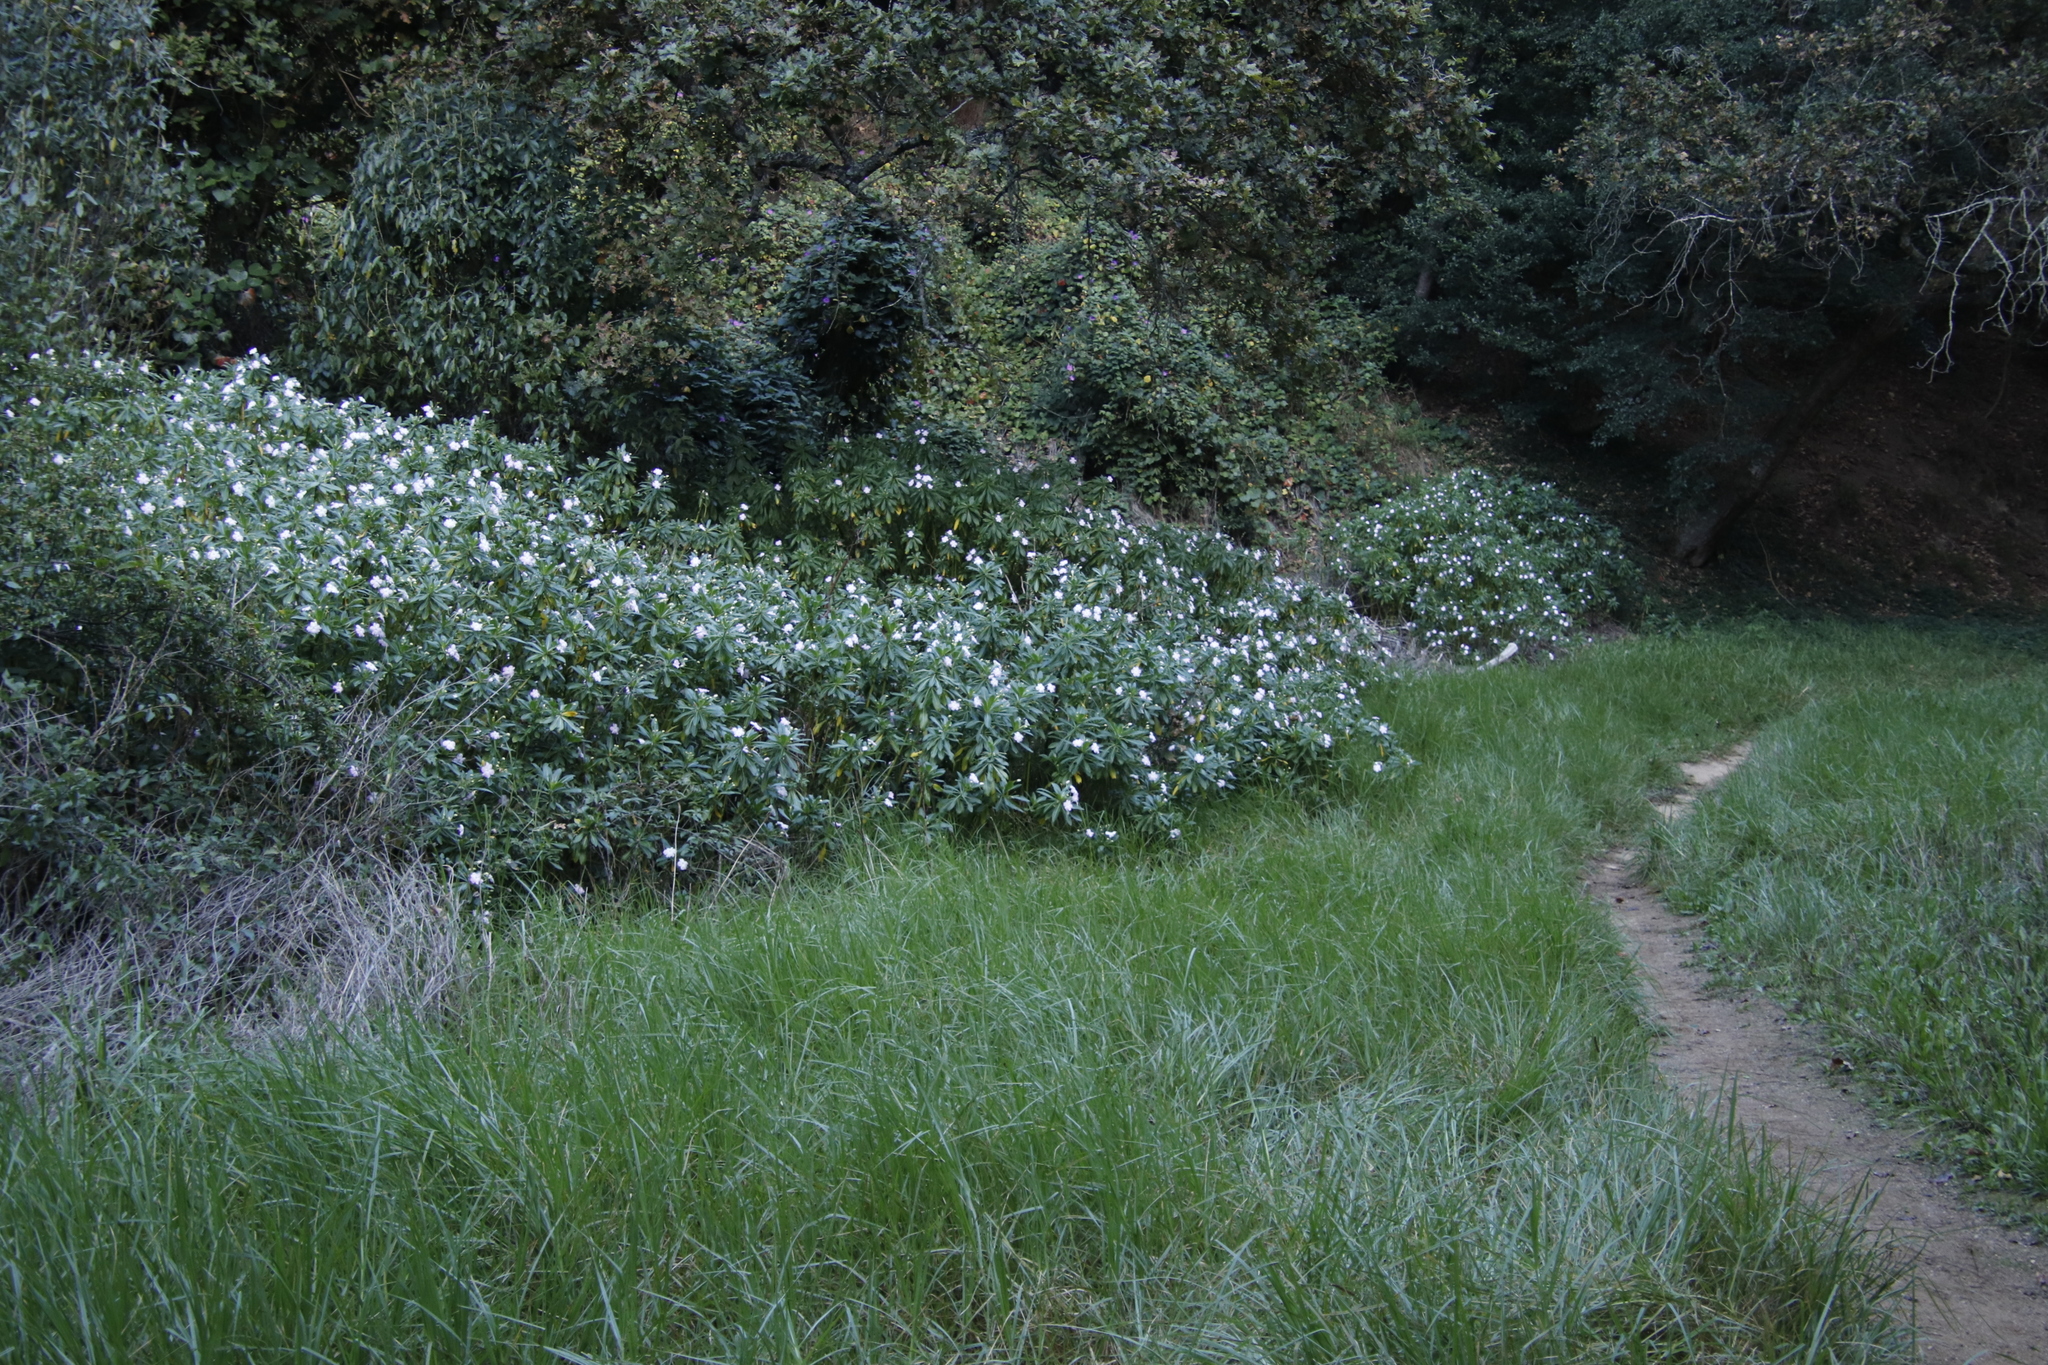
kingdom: Plantae
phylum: Tracheophyta
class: Magnoliopsida
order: Ericales
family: Balsaminaceae
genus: Impatiens
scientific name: Impatiens sodenii
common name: Oliver's touch-me-not
